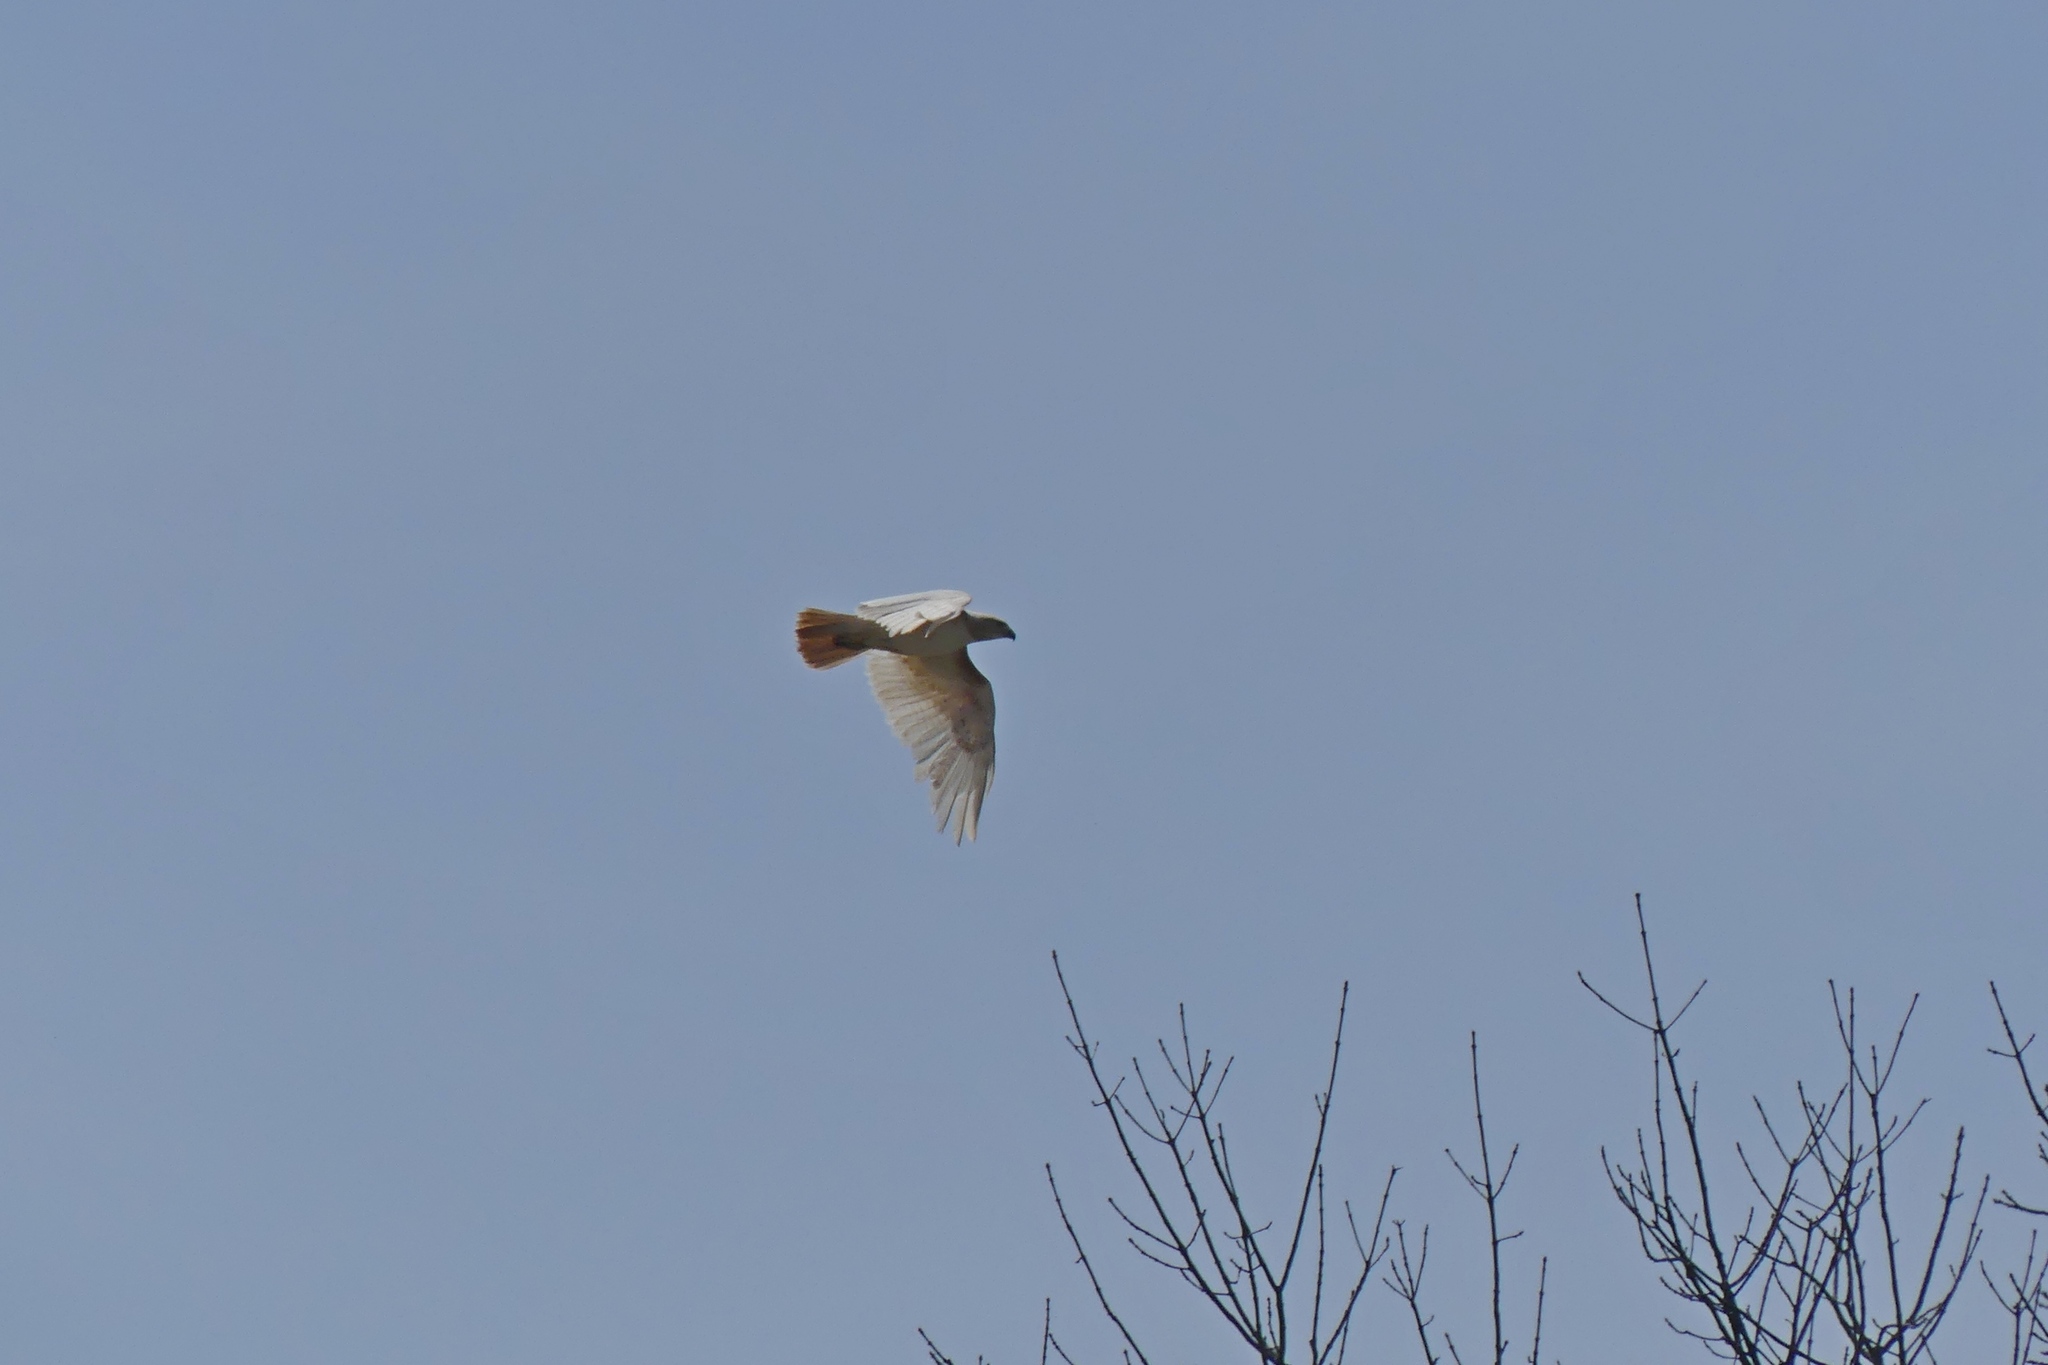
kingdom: Animalia
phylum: Chordata
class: Aves
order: Accipitriformes
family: Accipitridae
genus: Buteo
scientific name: Buteo jamaicensis
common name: Red-tailed hawk
